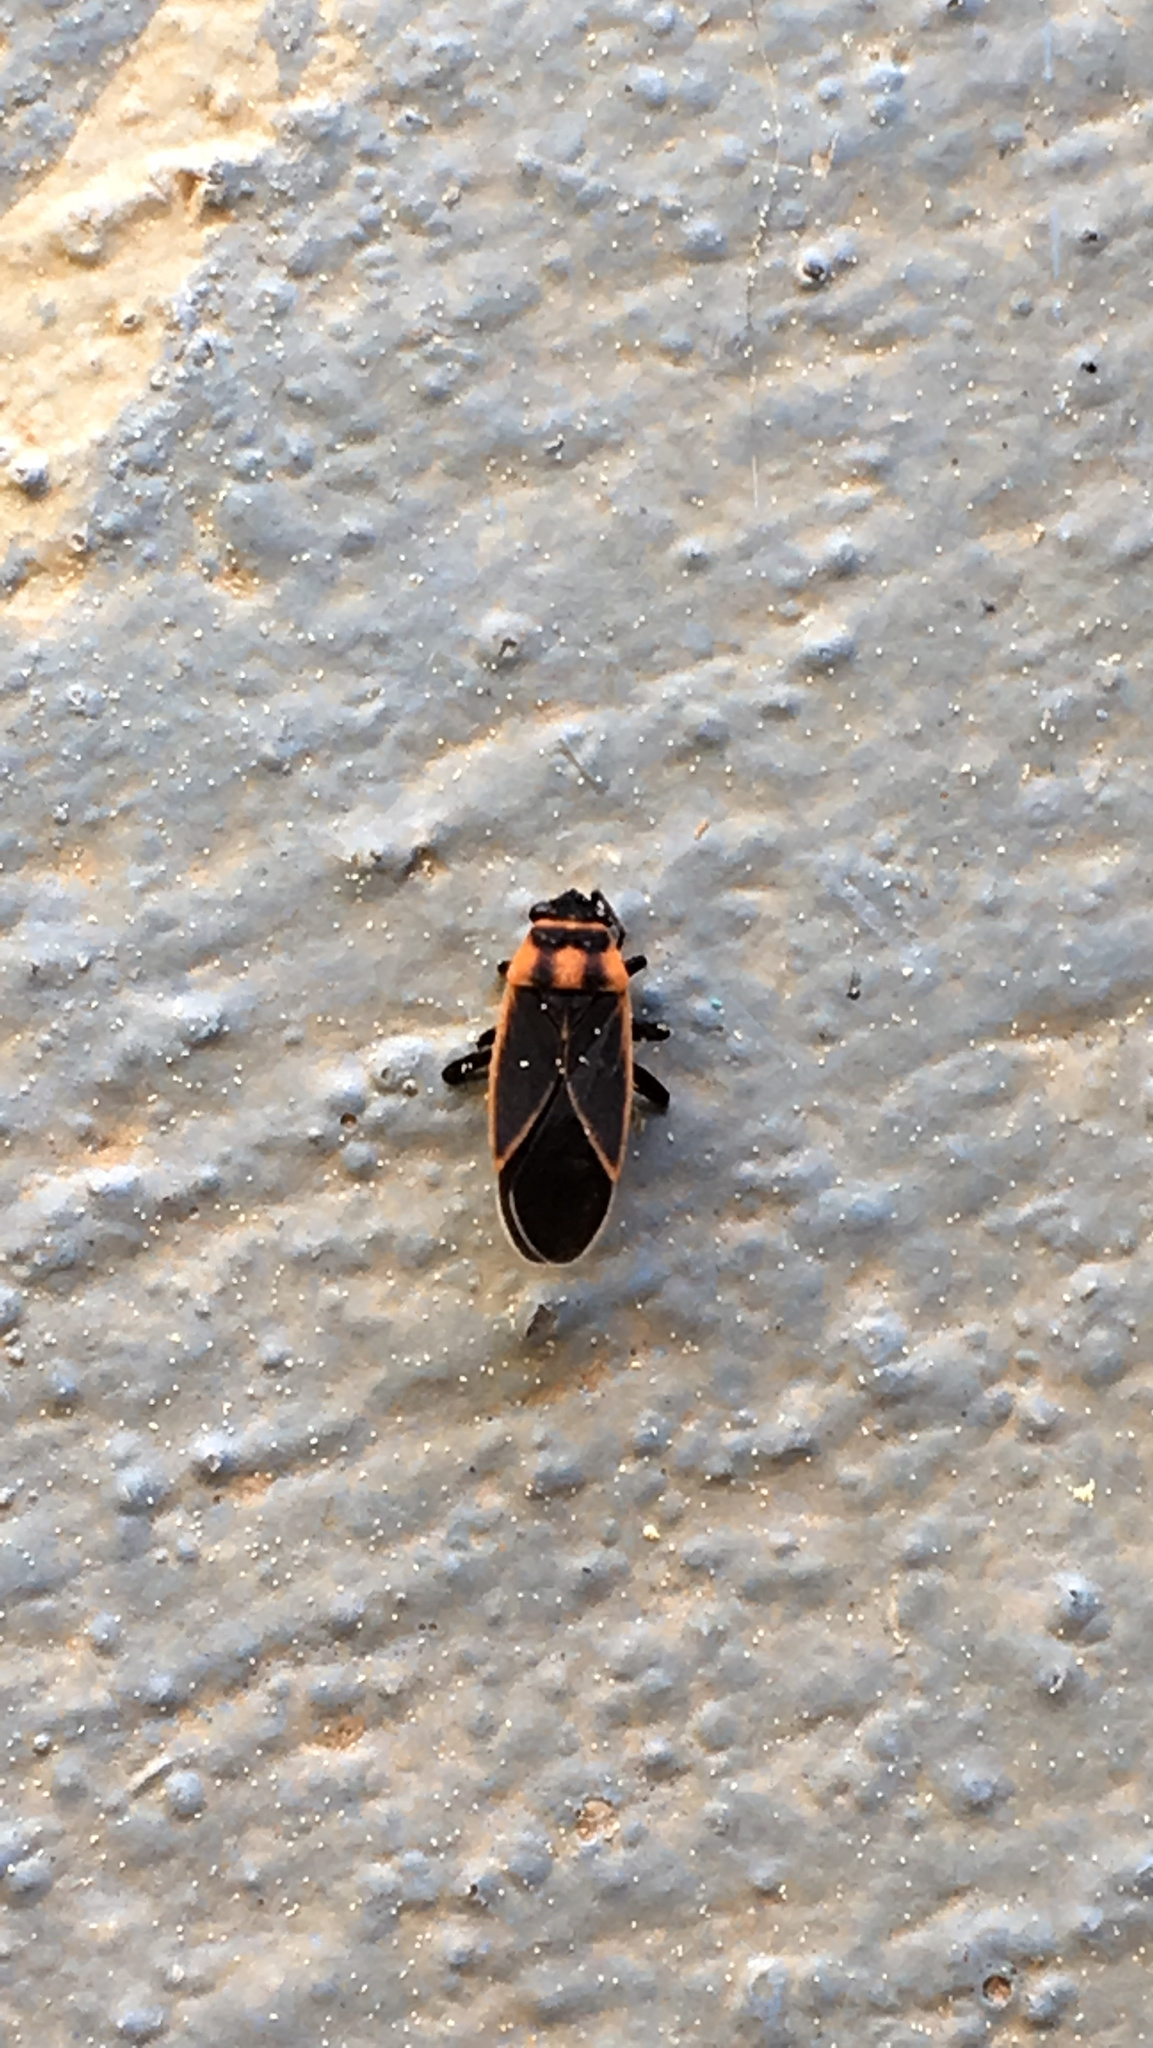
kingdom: Animalia
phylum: Arthropoda
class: Insecta
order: Hemiptera
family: Lygaeidae
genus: Ochrimnus
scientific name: Ochrimnus lineoloides
